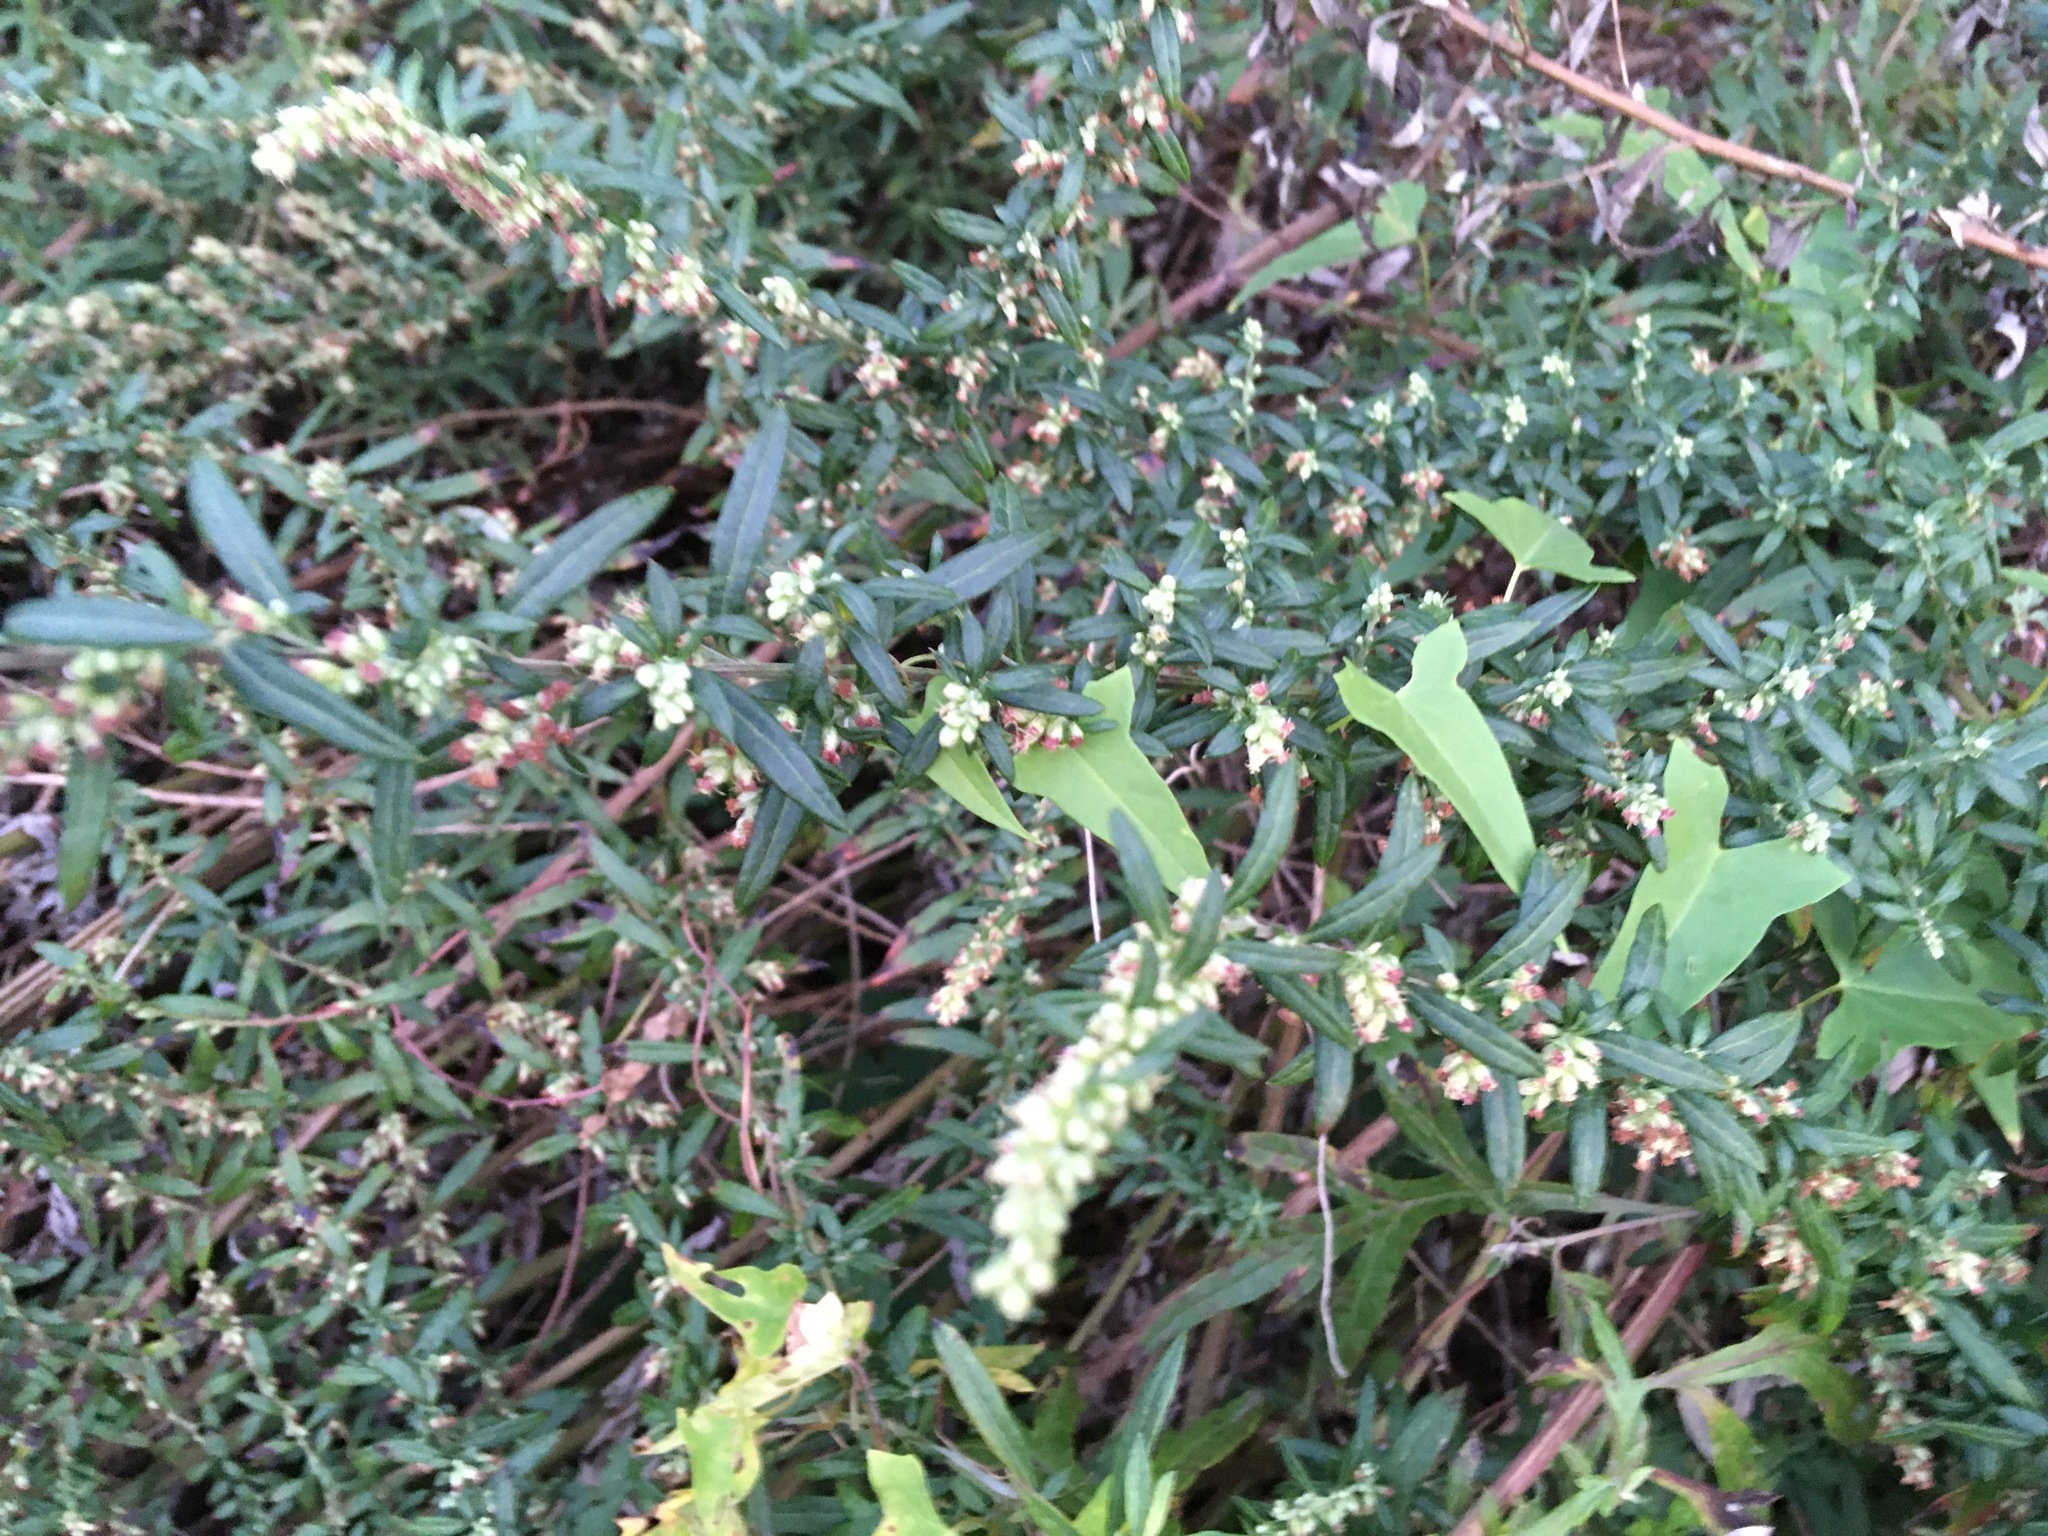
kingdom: Plantae
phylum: Tracheophyta
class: Magnoliopsida
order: Asterales
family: Asteraceae
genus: Artemisia
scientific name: Artemisia vulgaris
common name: Mugwort
